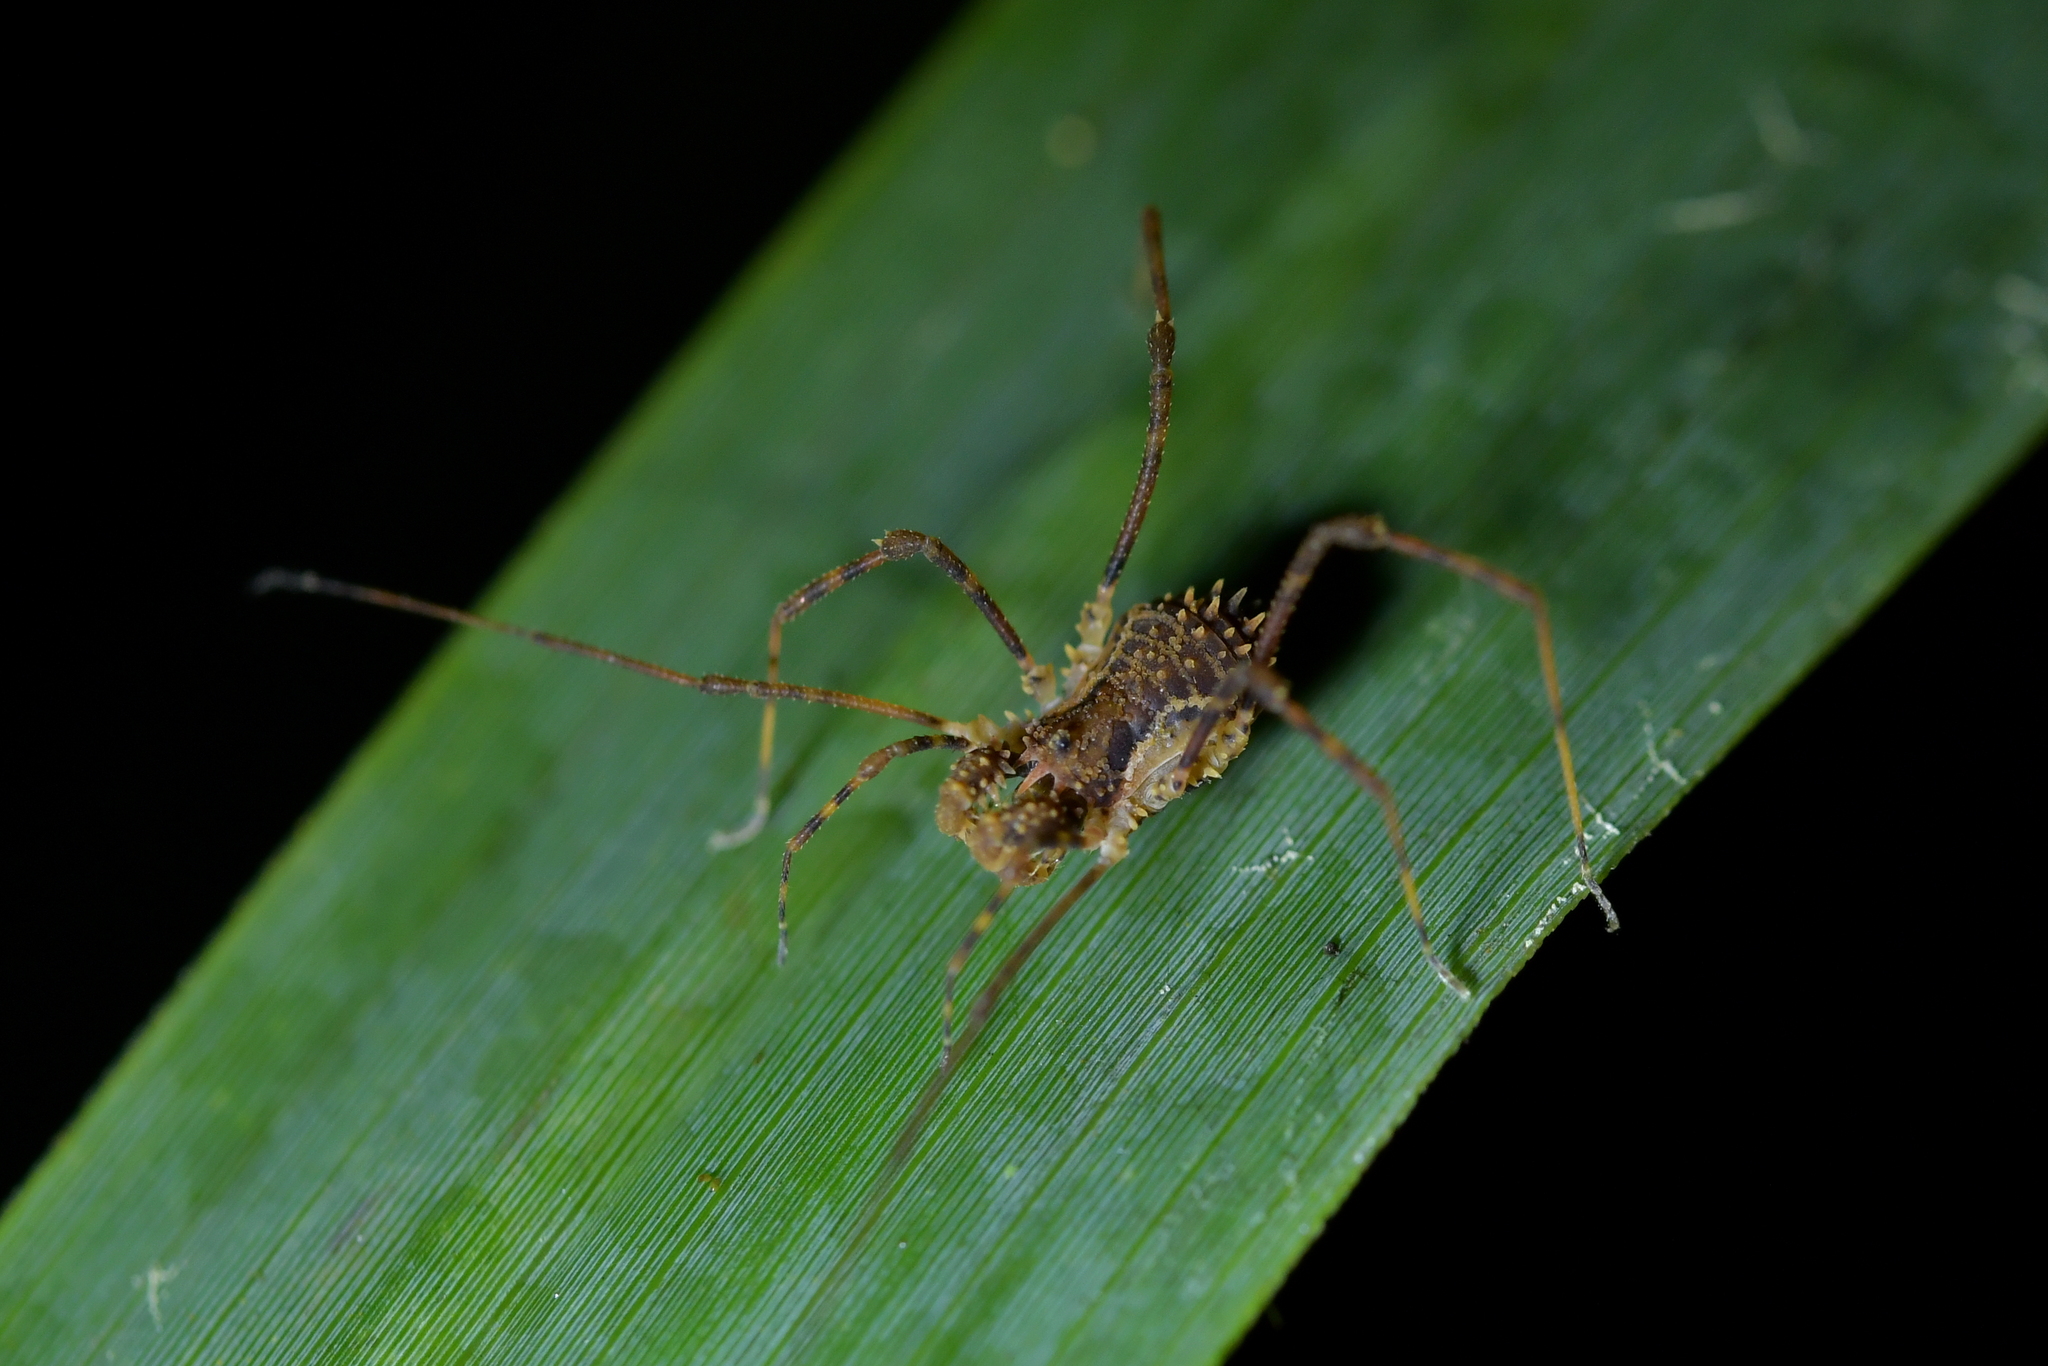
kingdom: Animalia
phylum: Arthropoda
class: Arachnida
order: Opiliones
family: Triaenonychidae
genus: Algidia
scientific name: Algidia chiltoni
